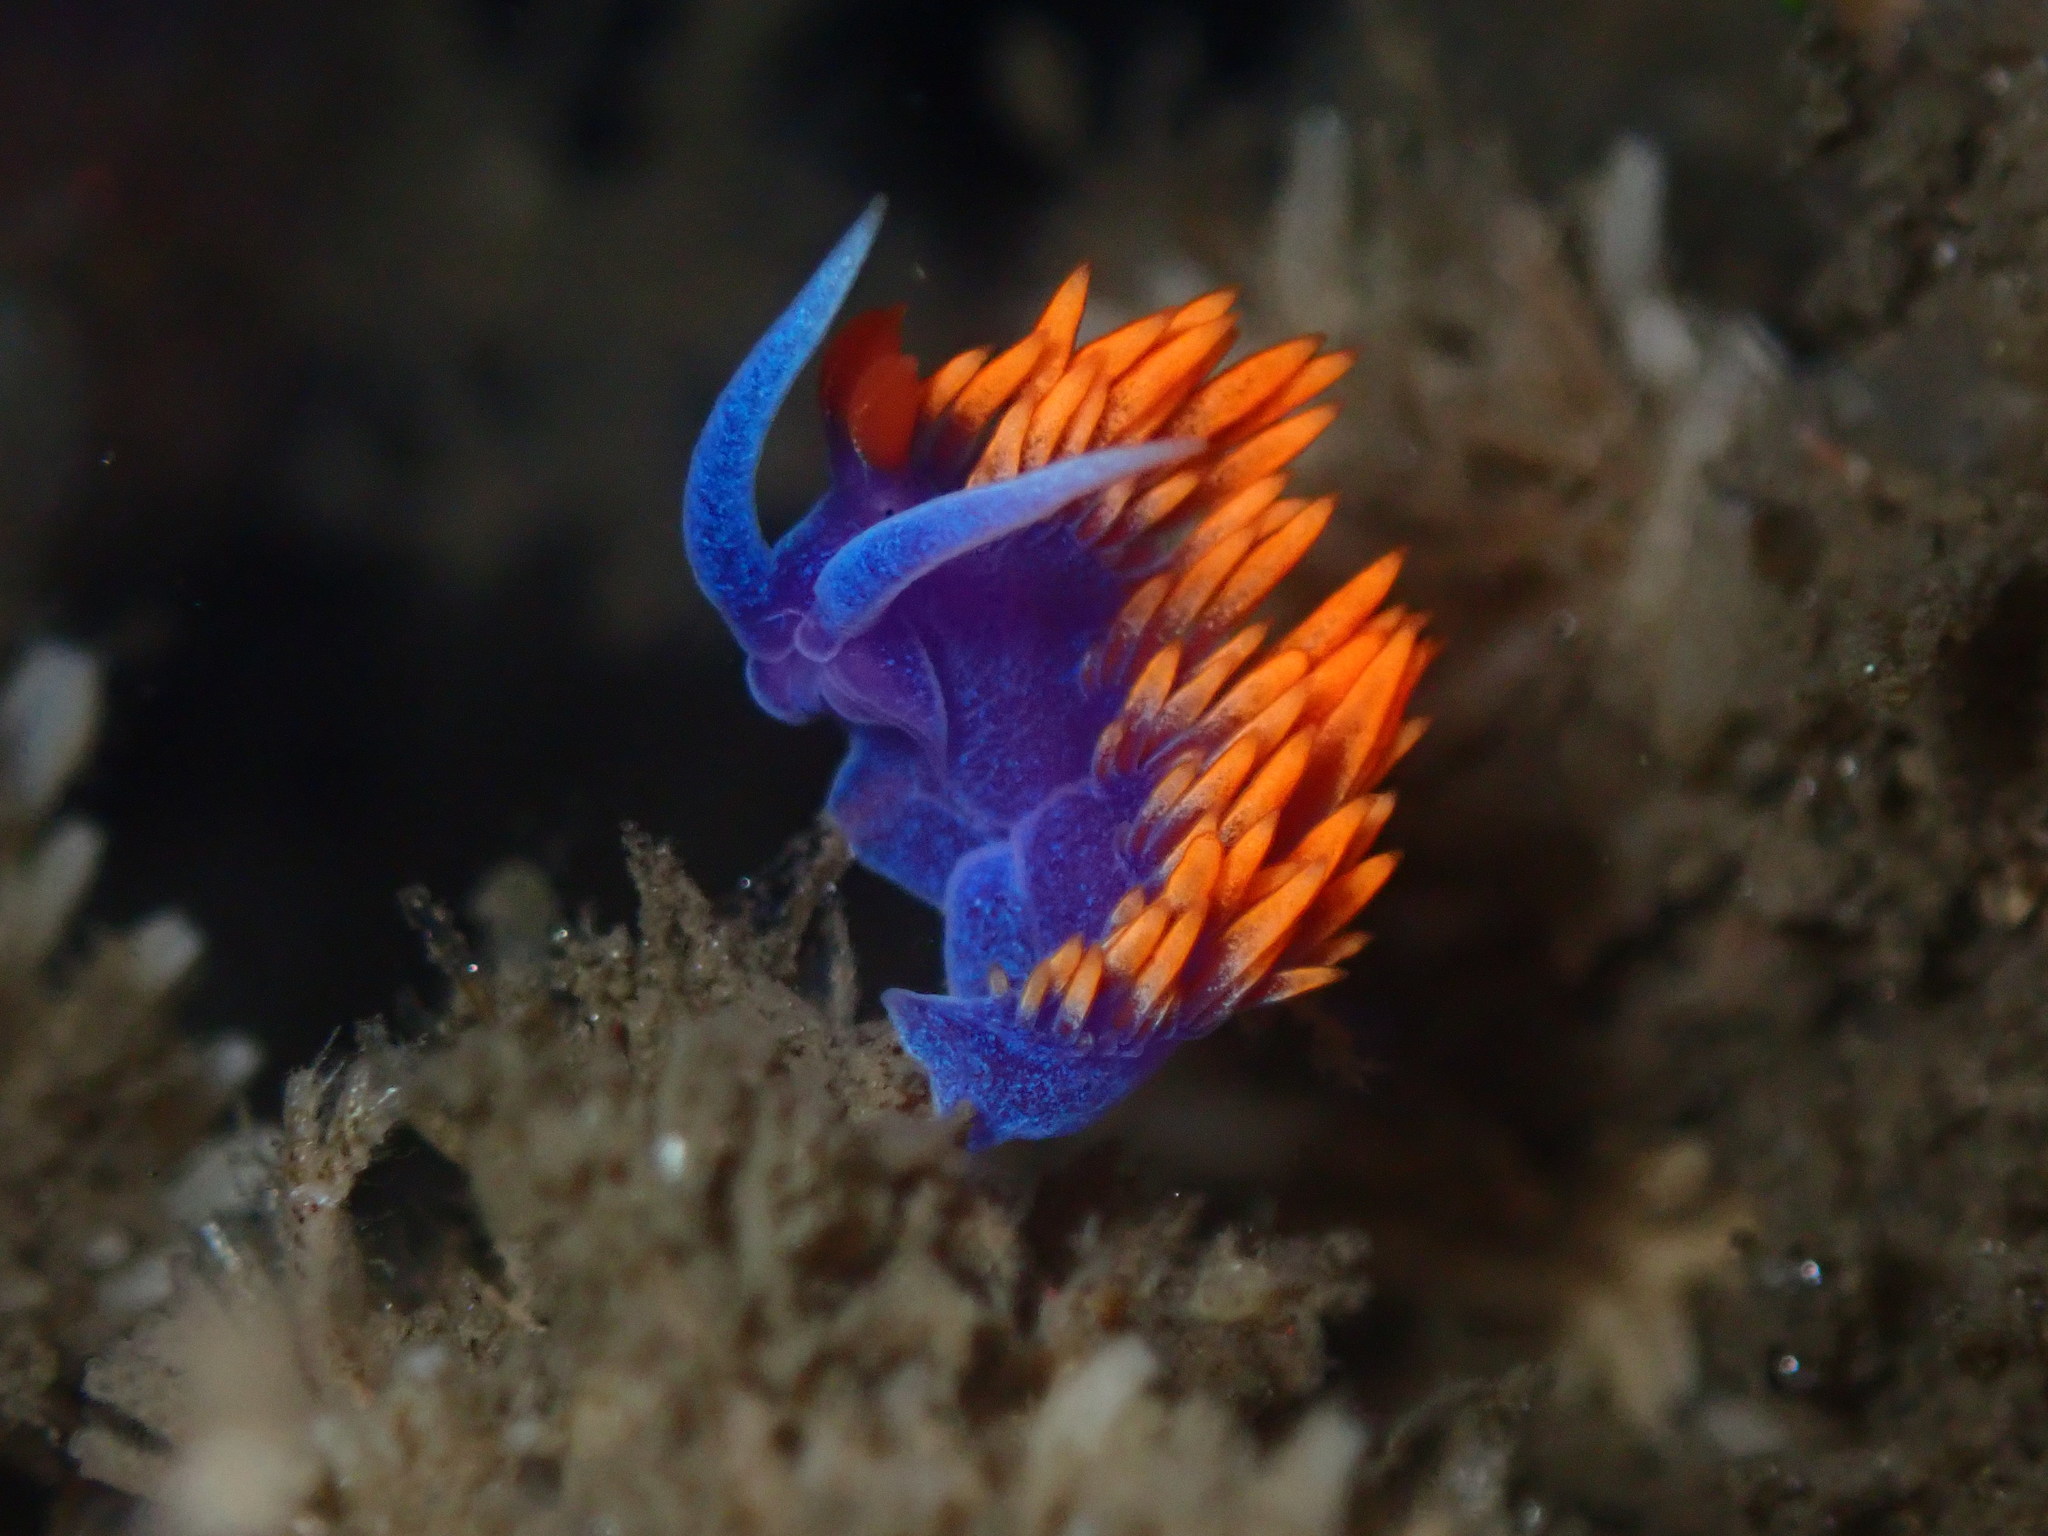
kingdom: Animalia
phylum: Mollusca
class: Gastropoda
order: Nudibranchia
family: Flabellinopsidae
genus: Flabellinopsis
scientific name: Flabellinopsis iodinea
